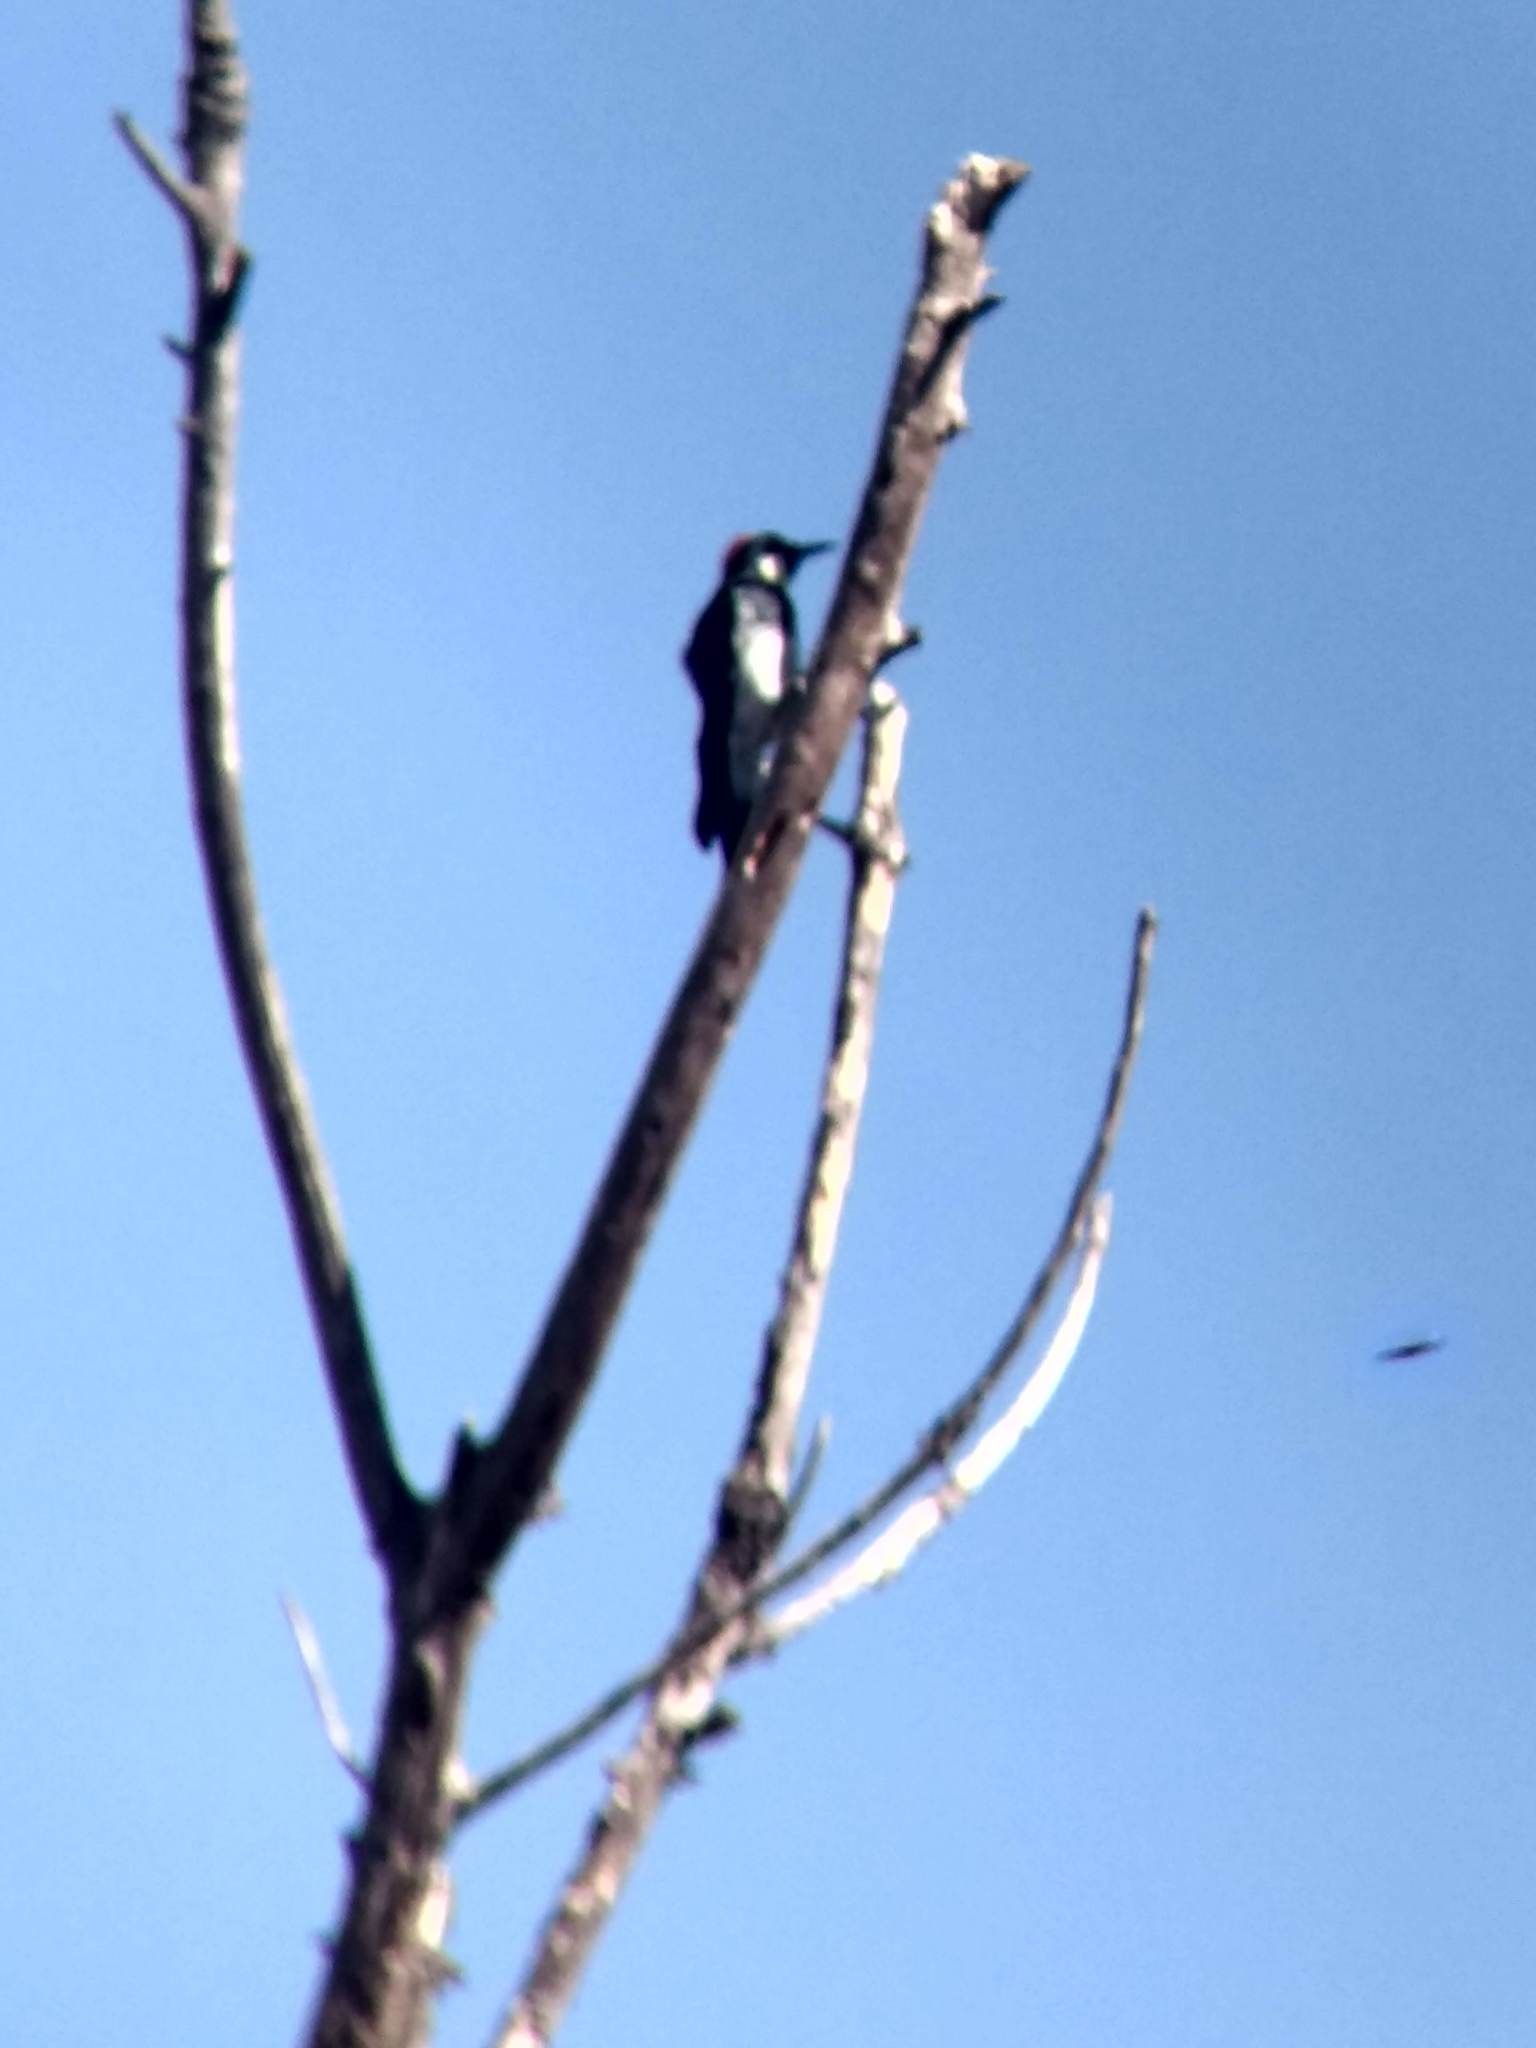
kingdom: Animalia
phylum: Chordata
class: Aves
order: Piciformes
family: Picidae
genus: Melanerpes
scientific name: Melanerpes formicivorus
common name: Acorn woodpecker
